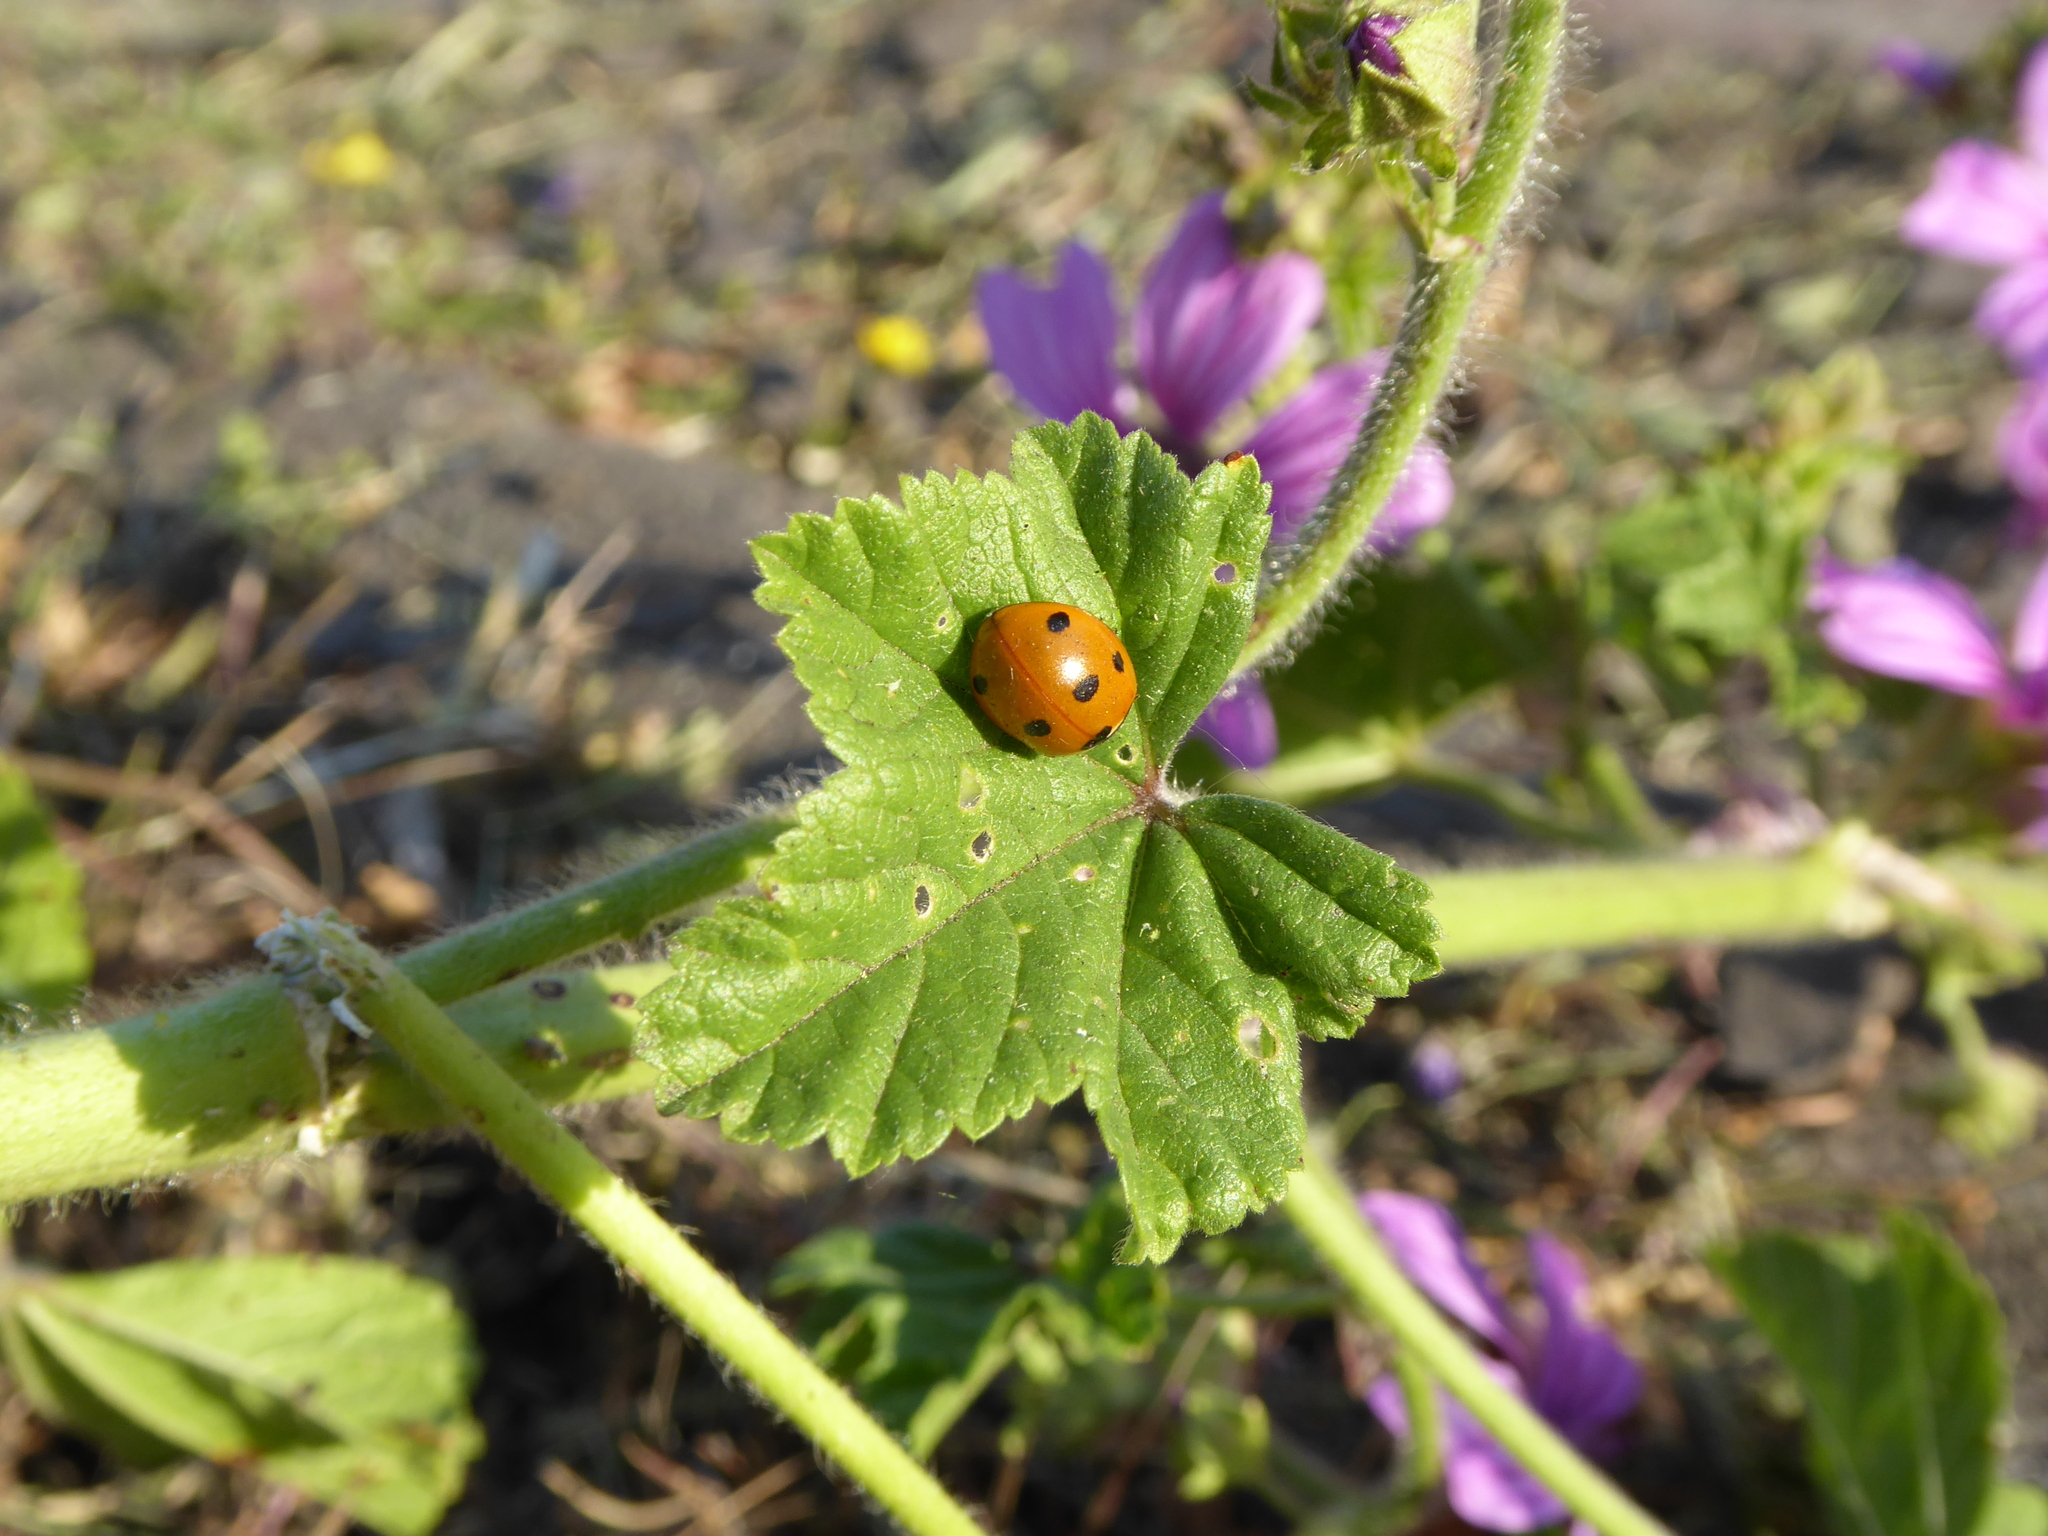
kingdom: Animalia
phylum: Arthropoda
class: Insecta
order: Coleoptera
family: Coccinellidae
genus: Coccinella
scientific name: Coccinella septempunctata
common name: Sevenspotted lady beetle
